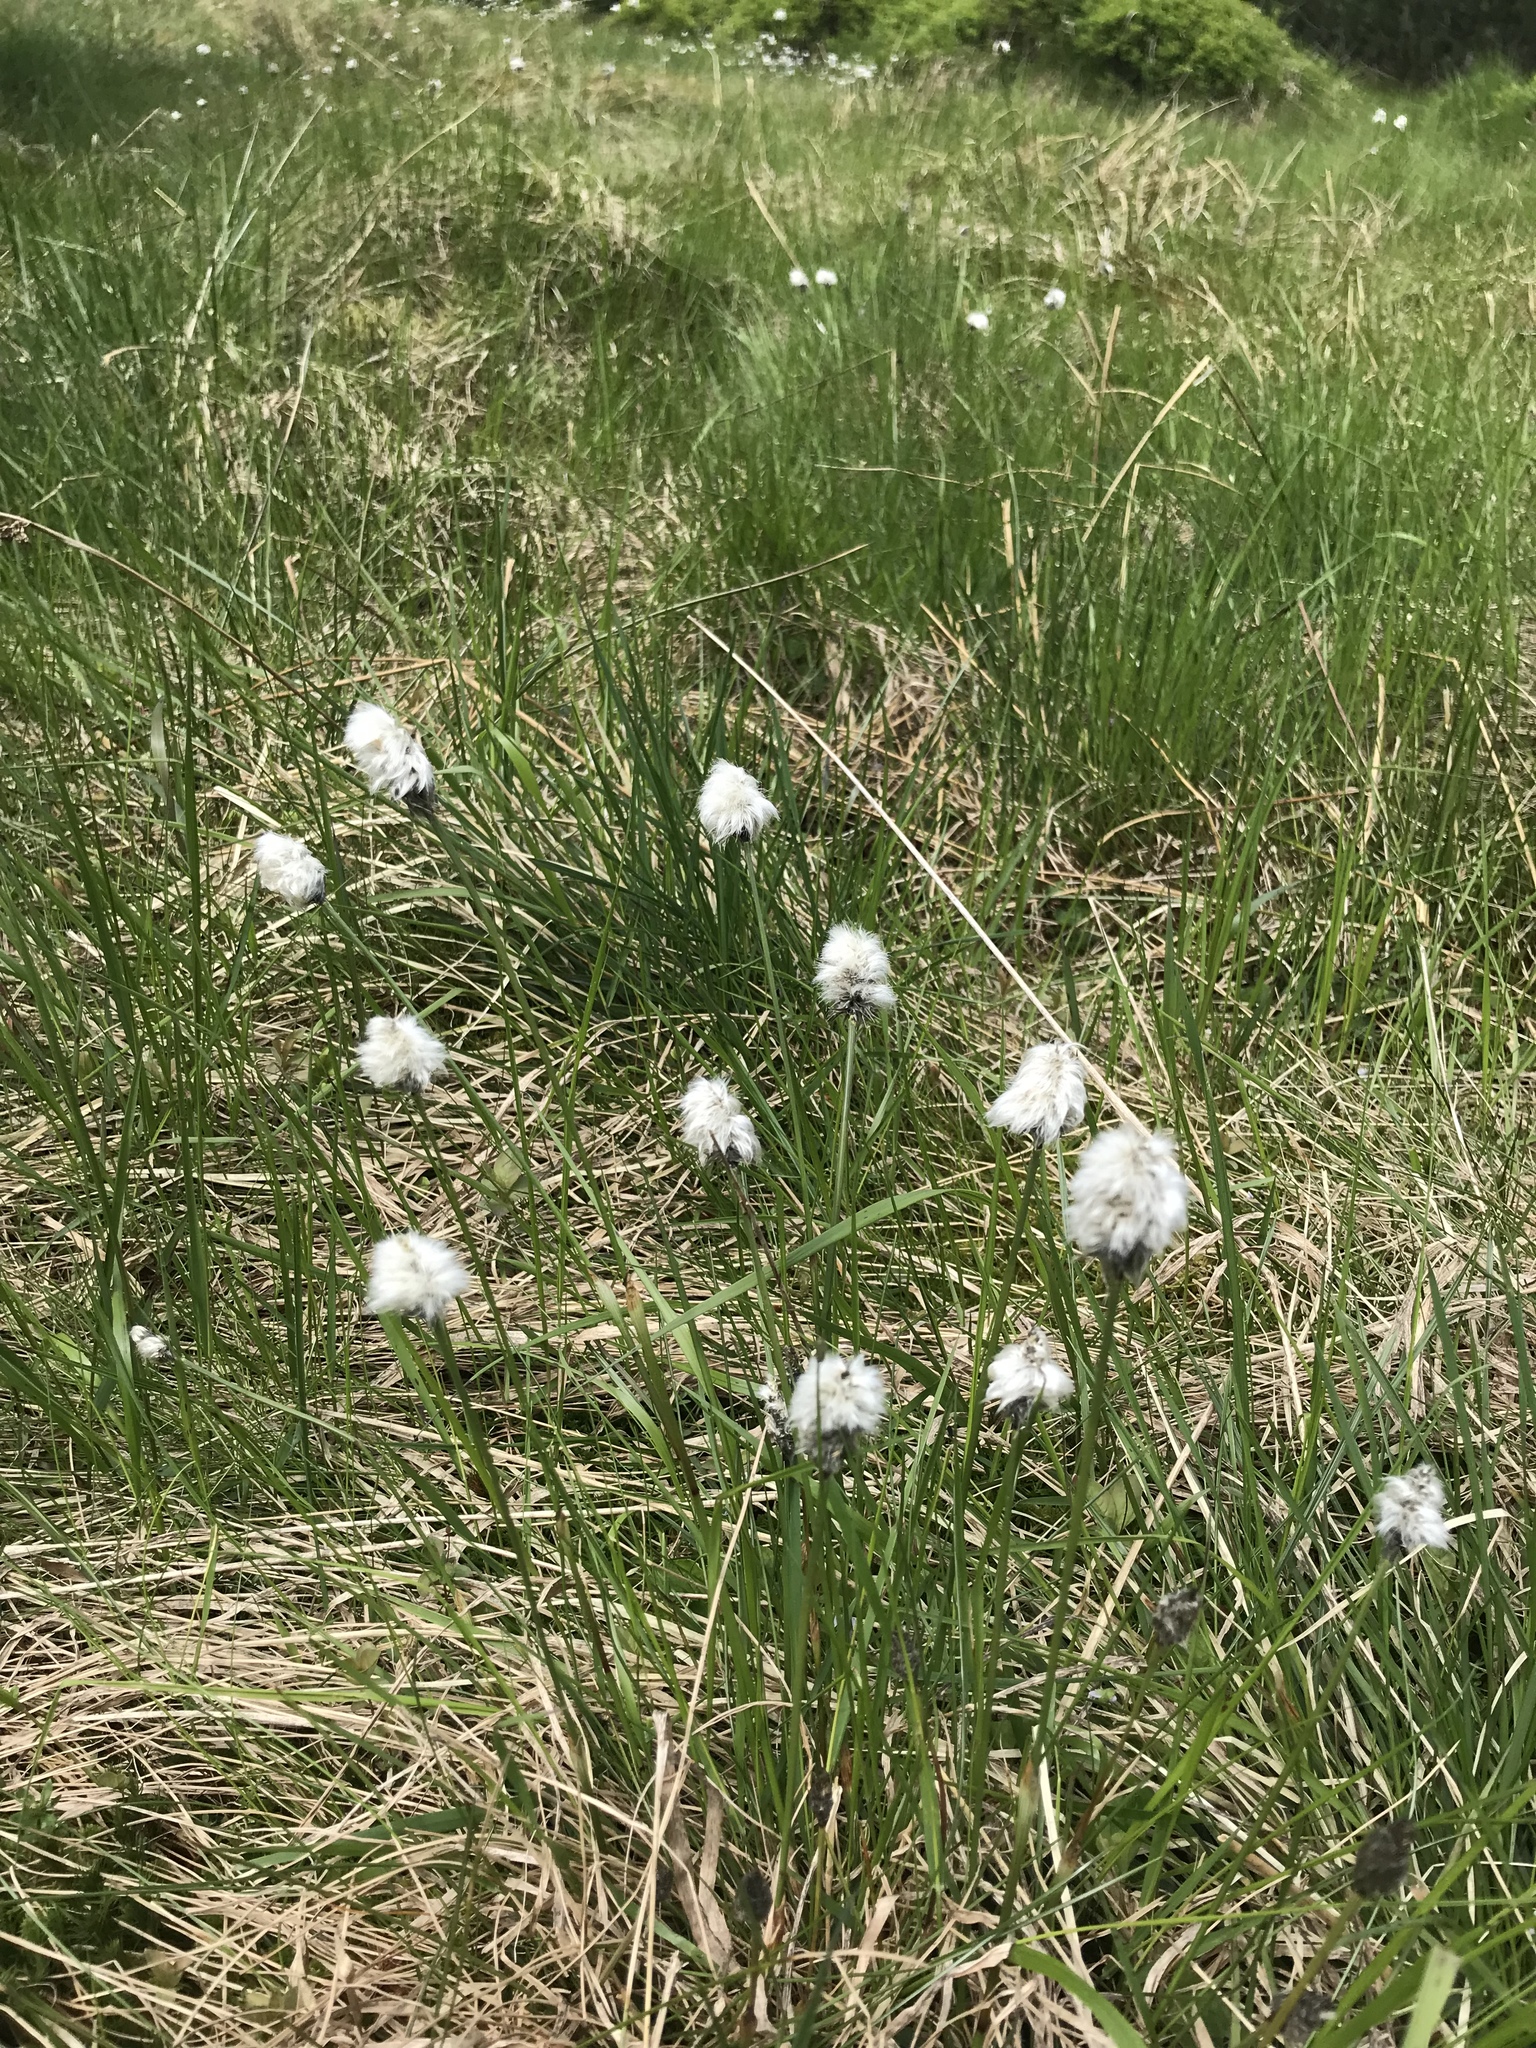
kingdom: Plantae
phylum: Tracheophyta
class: Liliopsida
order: Poales
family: Cyperaceae
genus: Eriophorum
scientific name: Eriophorum vaginatum
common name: Hare's-tail cottongrass
